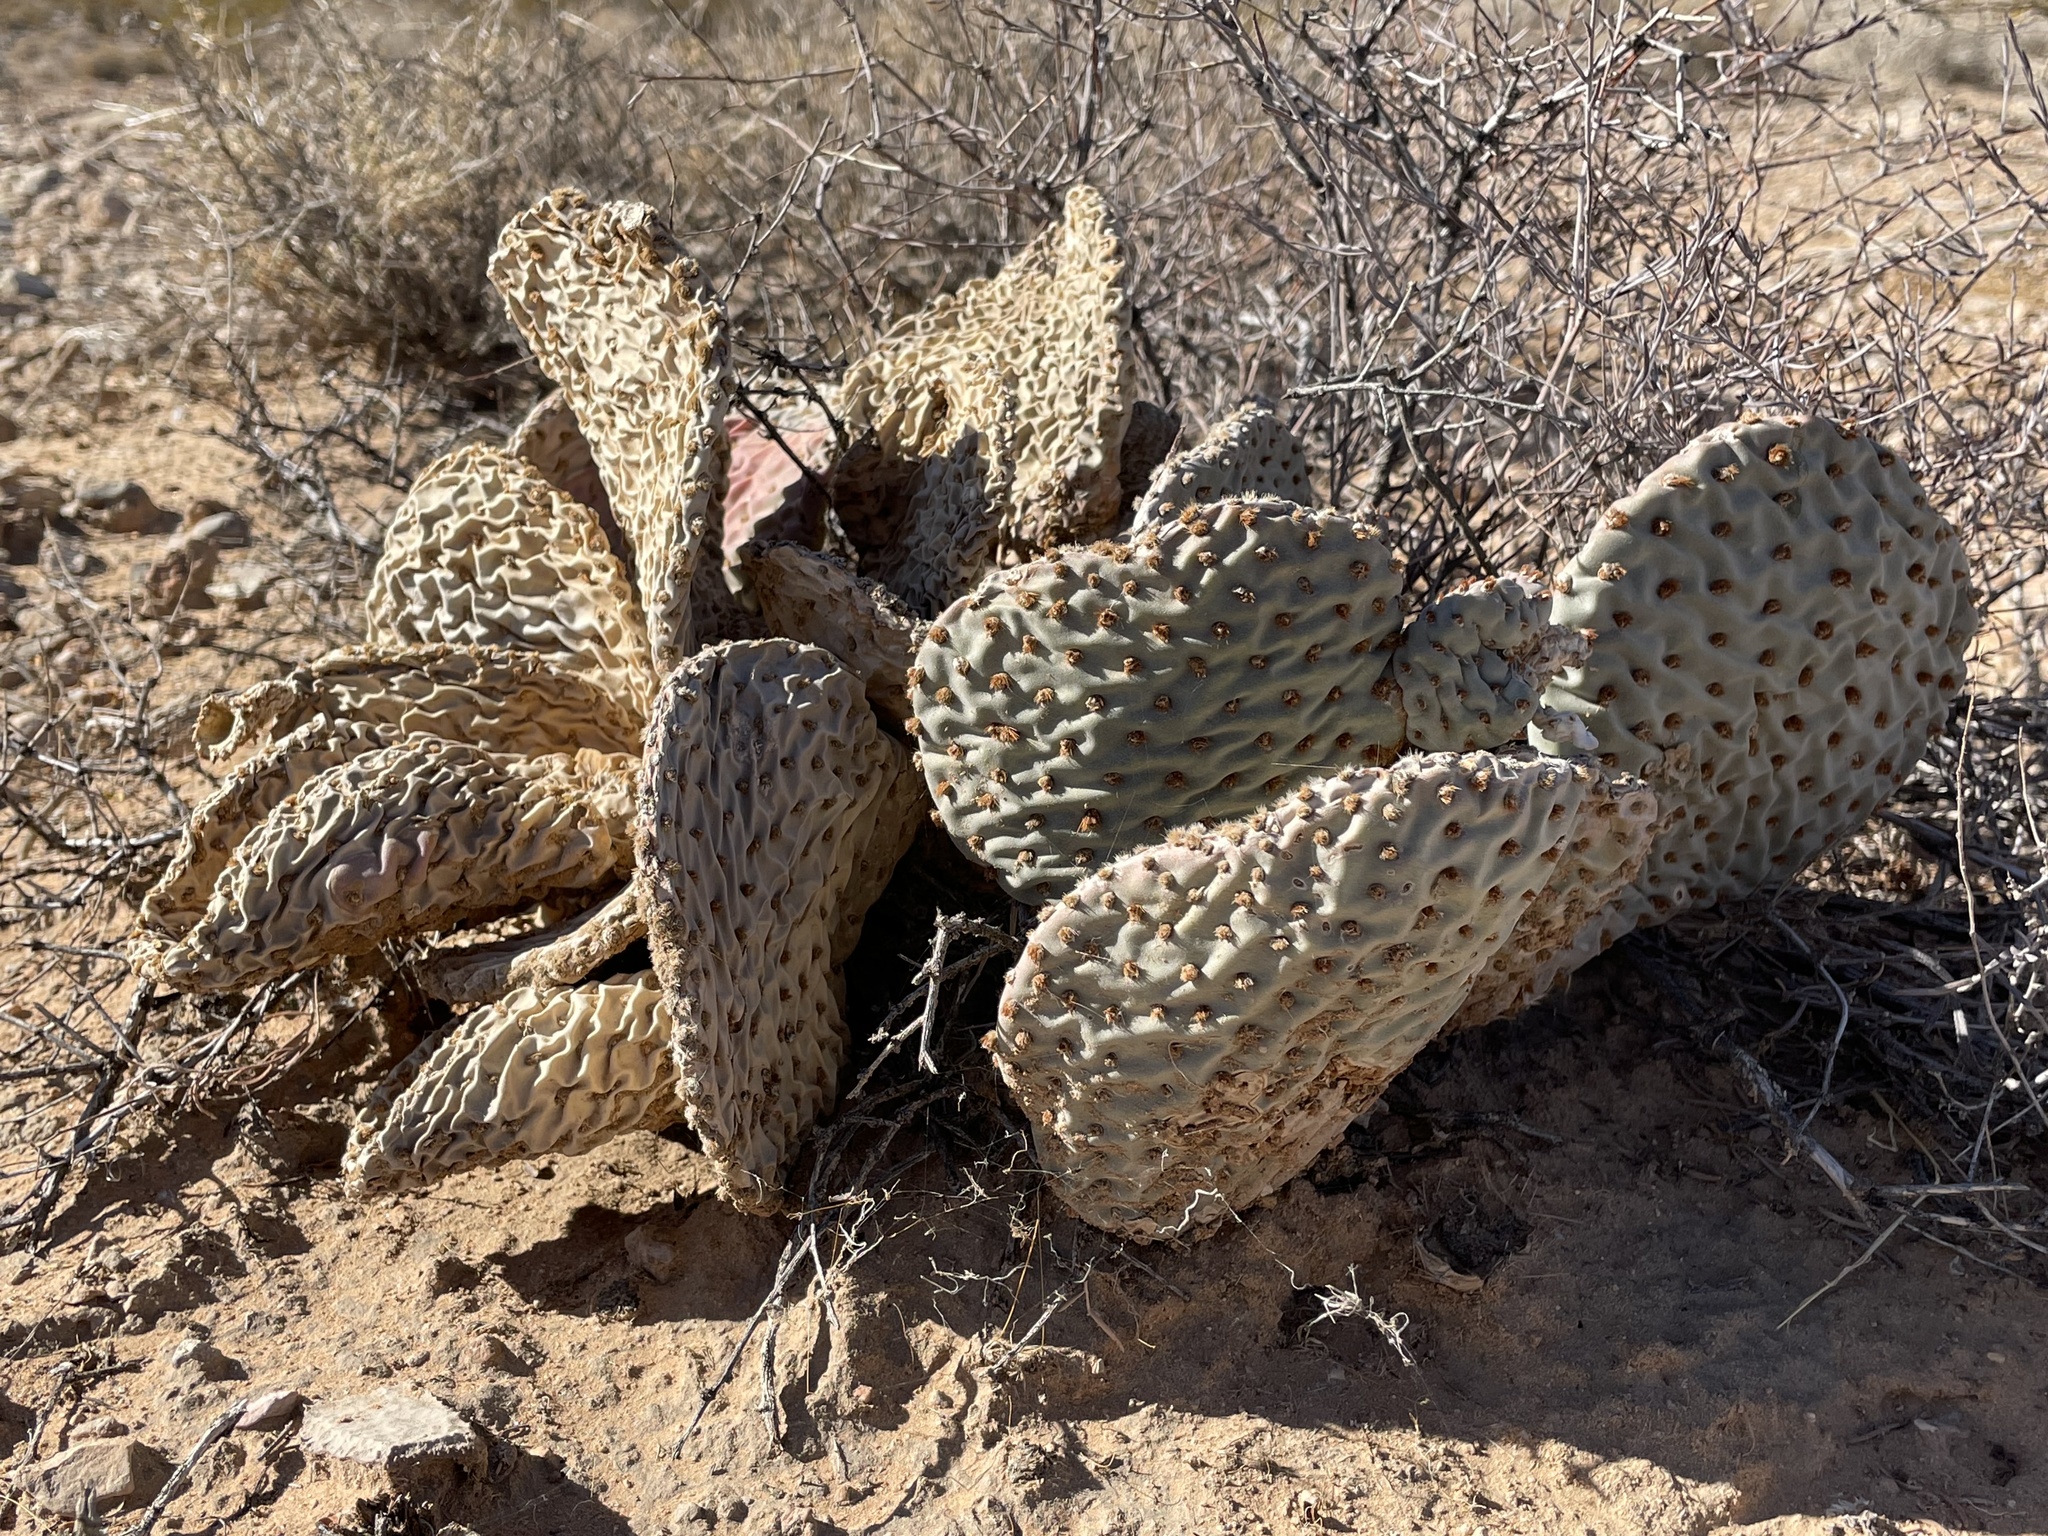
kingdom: Plantae
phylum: Tracheophyta
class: Magnoliopsida
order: Caryophyllales
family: Cactaceae
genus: Opuntia
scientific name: Opuntia basilaris
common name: Beavertail prickly-pear
